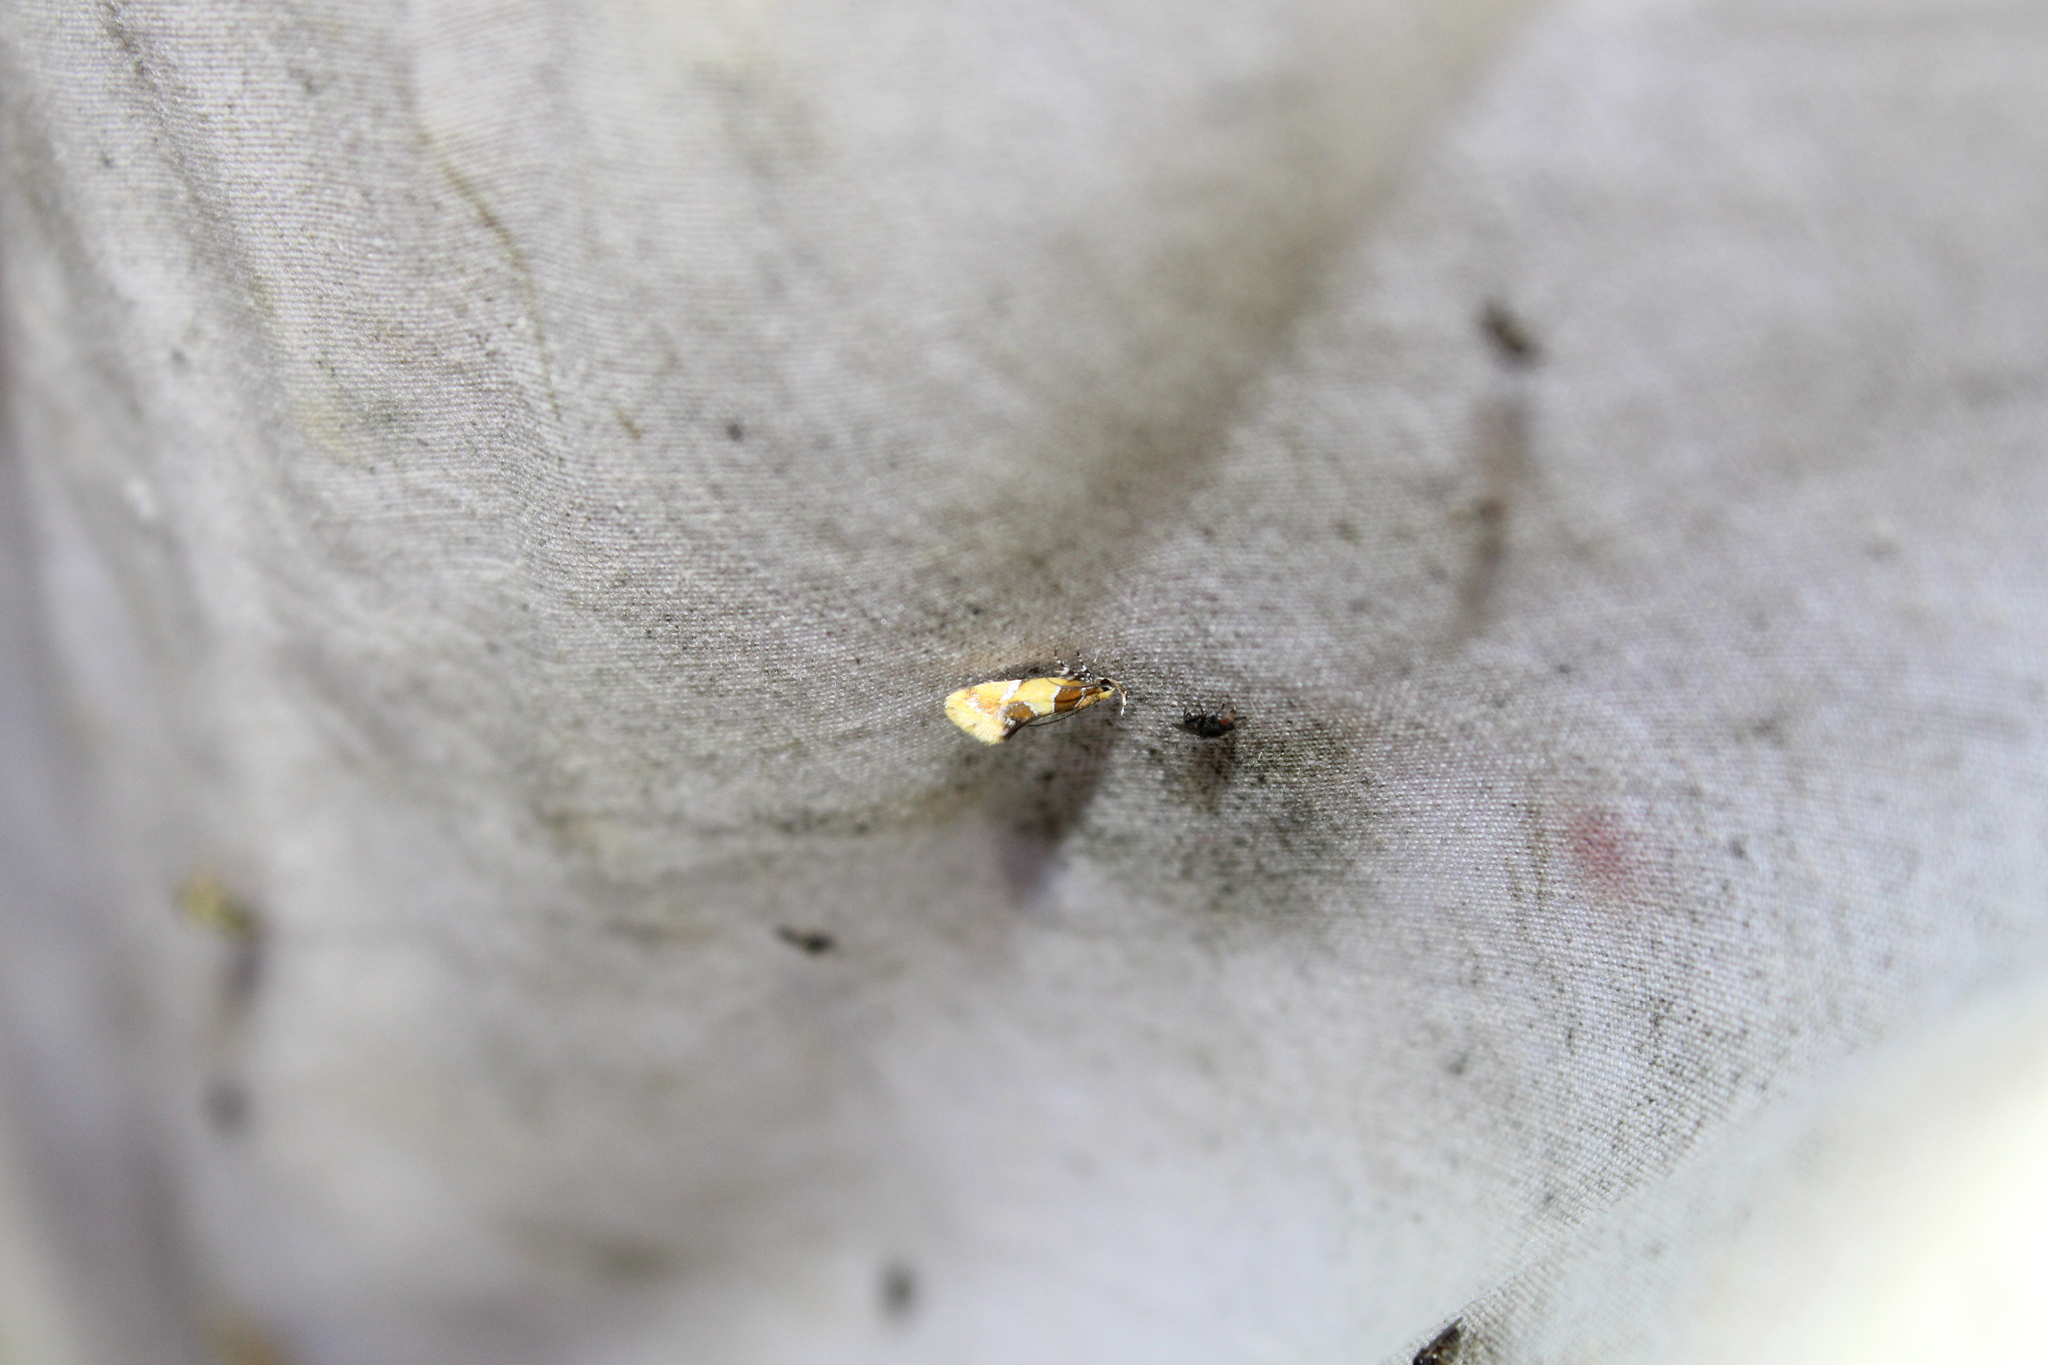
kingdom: Animalia
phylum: Arthropoda
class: Insecta
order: Lepidoptera
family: Oecophoridae
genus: Callima
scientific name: Callima argenticinctella
